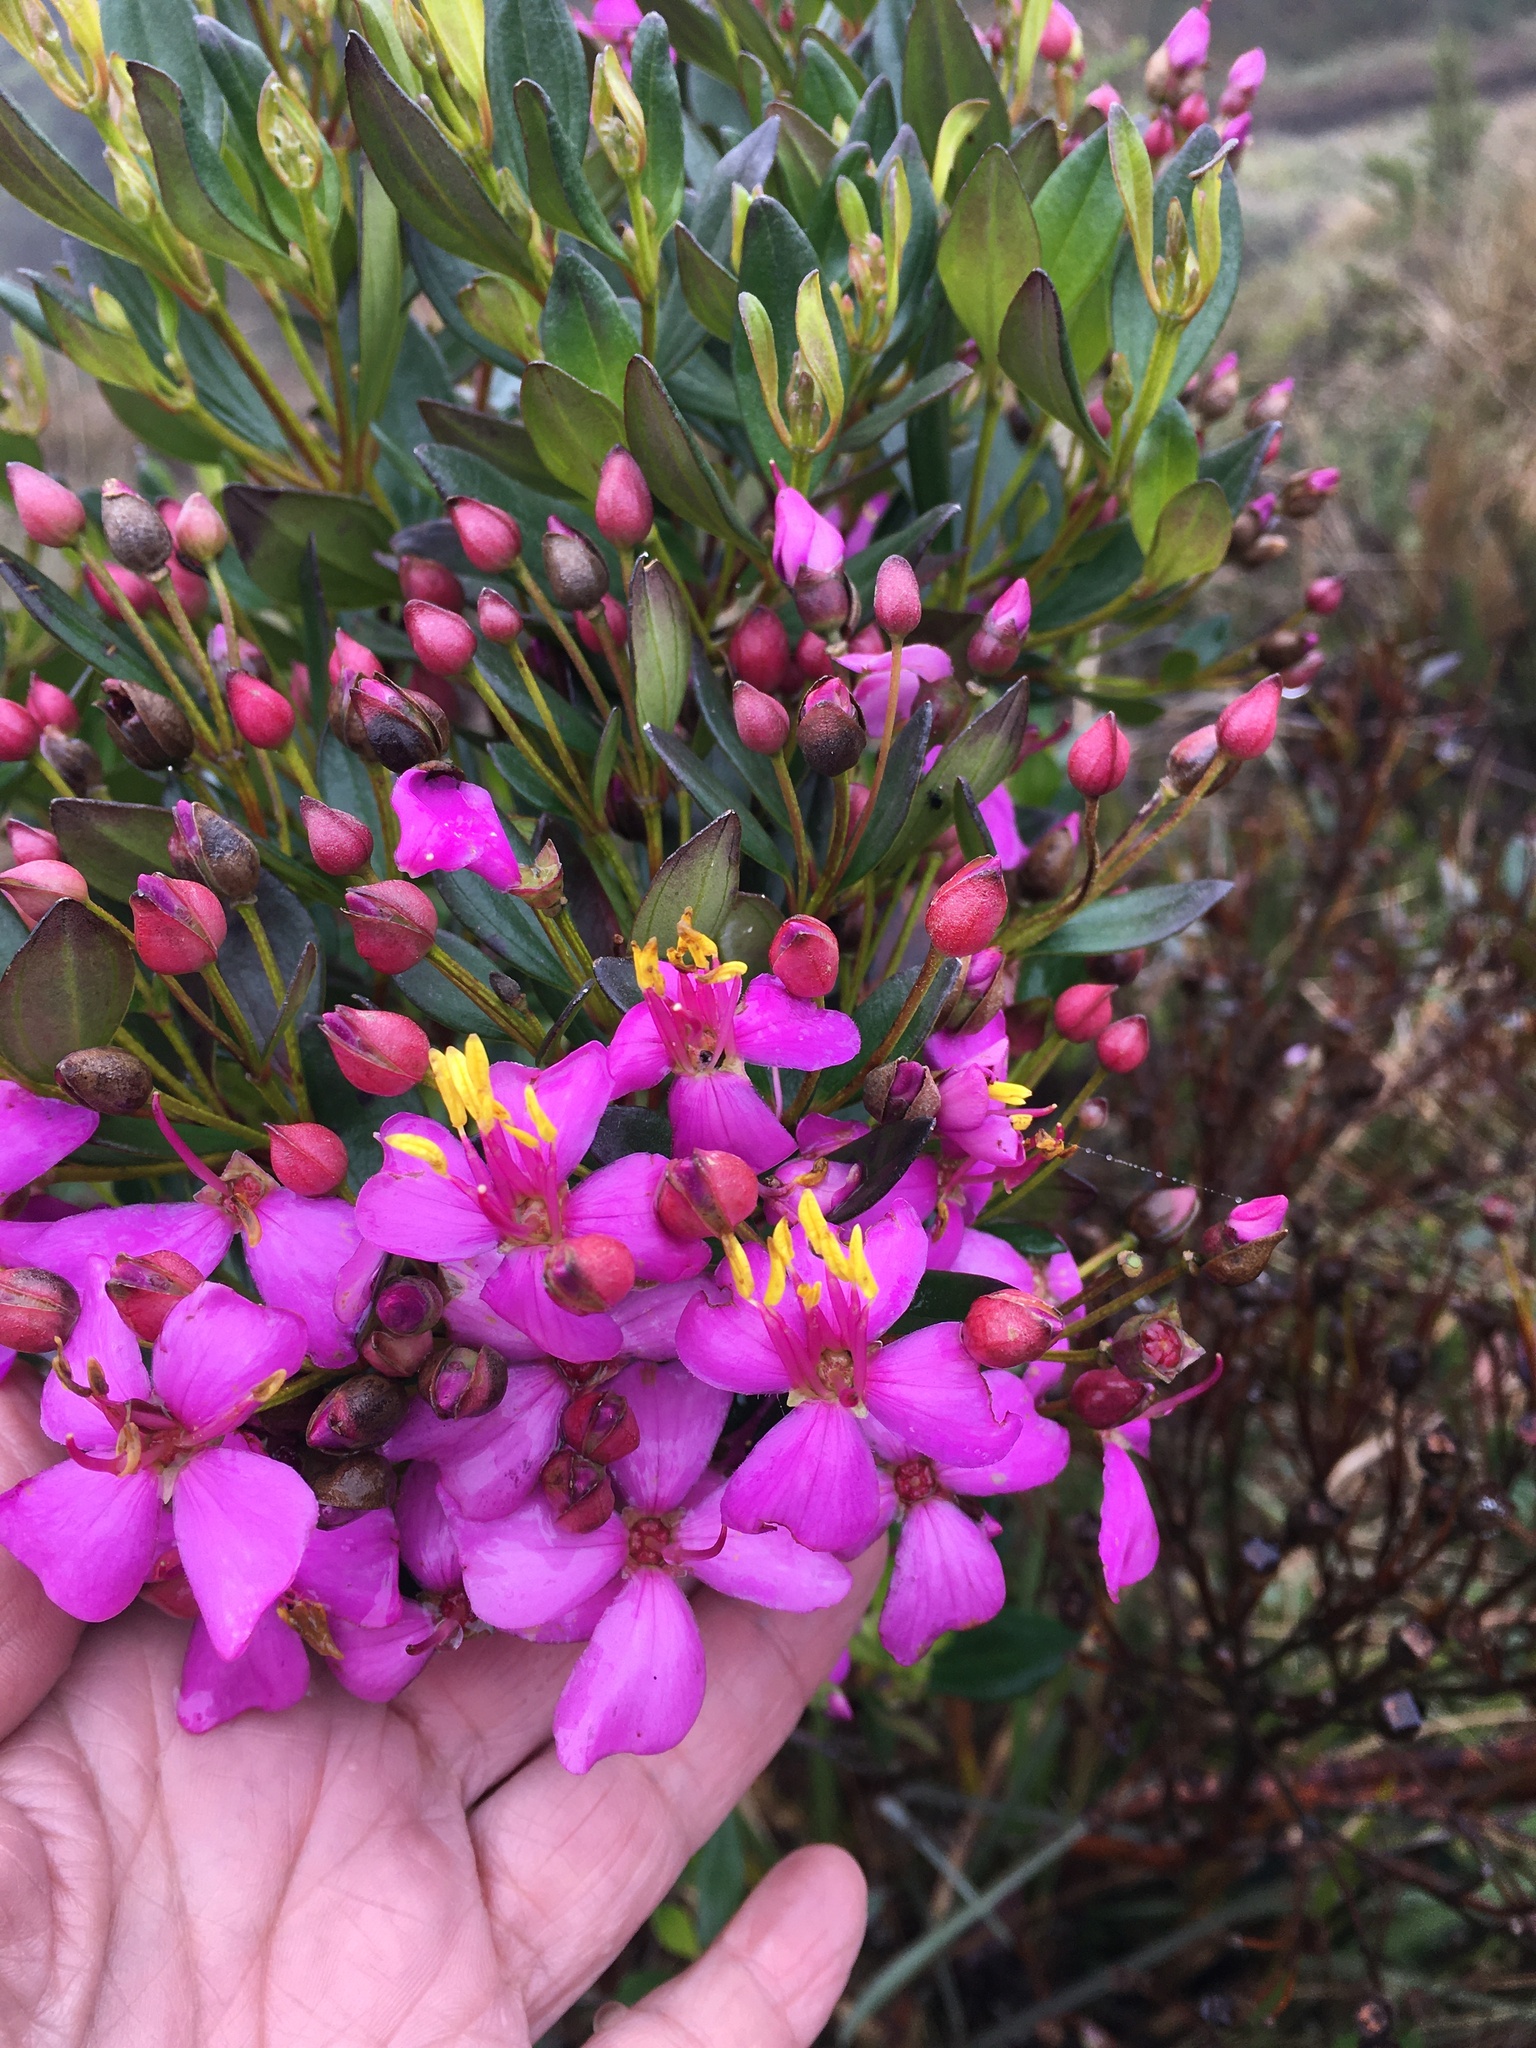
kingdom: Plantae
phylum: Tracheophyta
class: Magnoliopsida
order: Myrtales
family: Melastomataceae
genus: Bucquetia
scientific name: Bucquetia glutinosa
